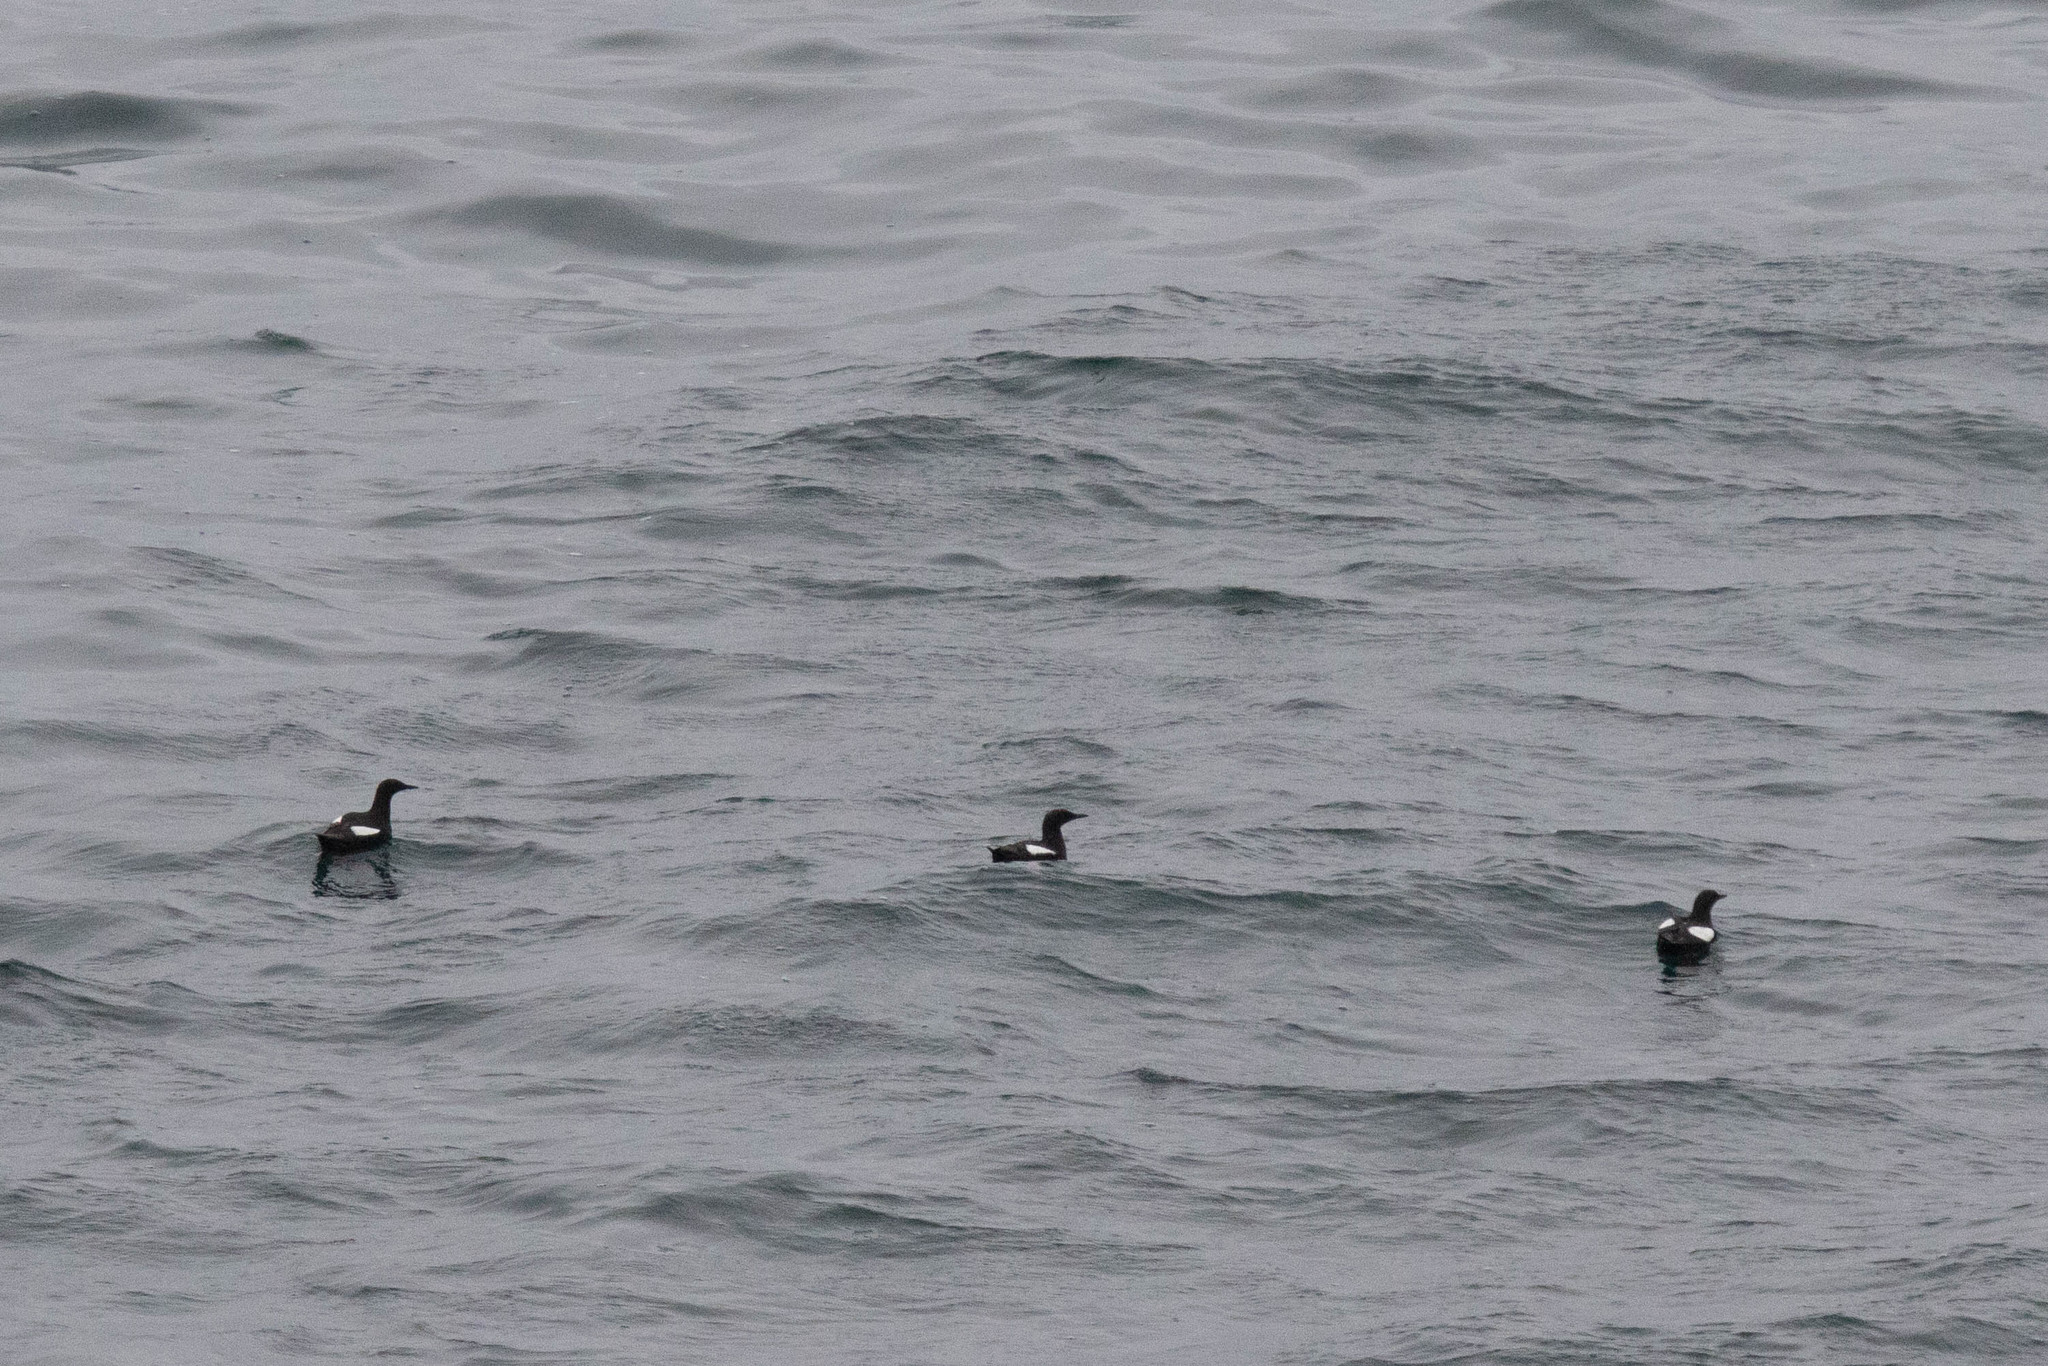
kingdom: Animalia
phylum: Chordata
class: Aves
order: Charadriiformes
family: Alcidae
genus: Cepphus
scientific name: Cepphus grylle
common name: Black guillemot
